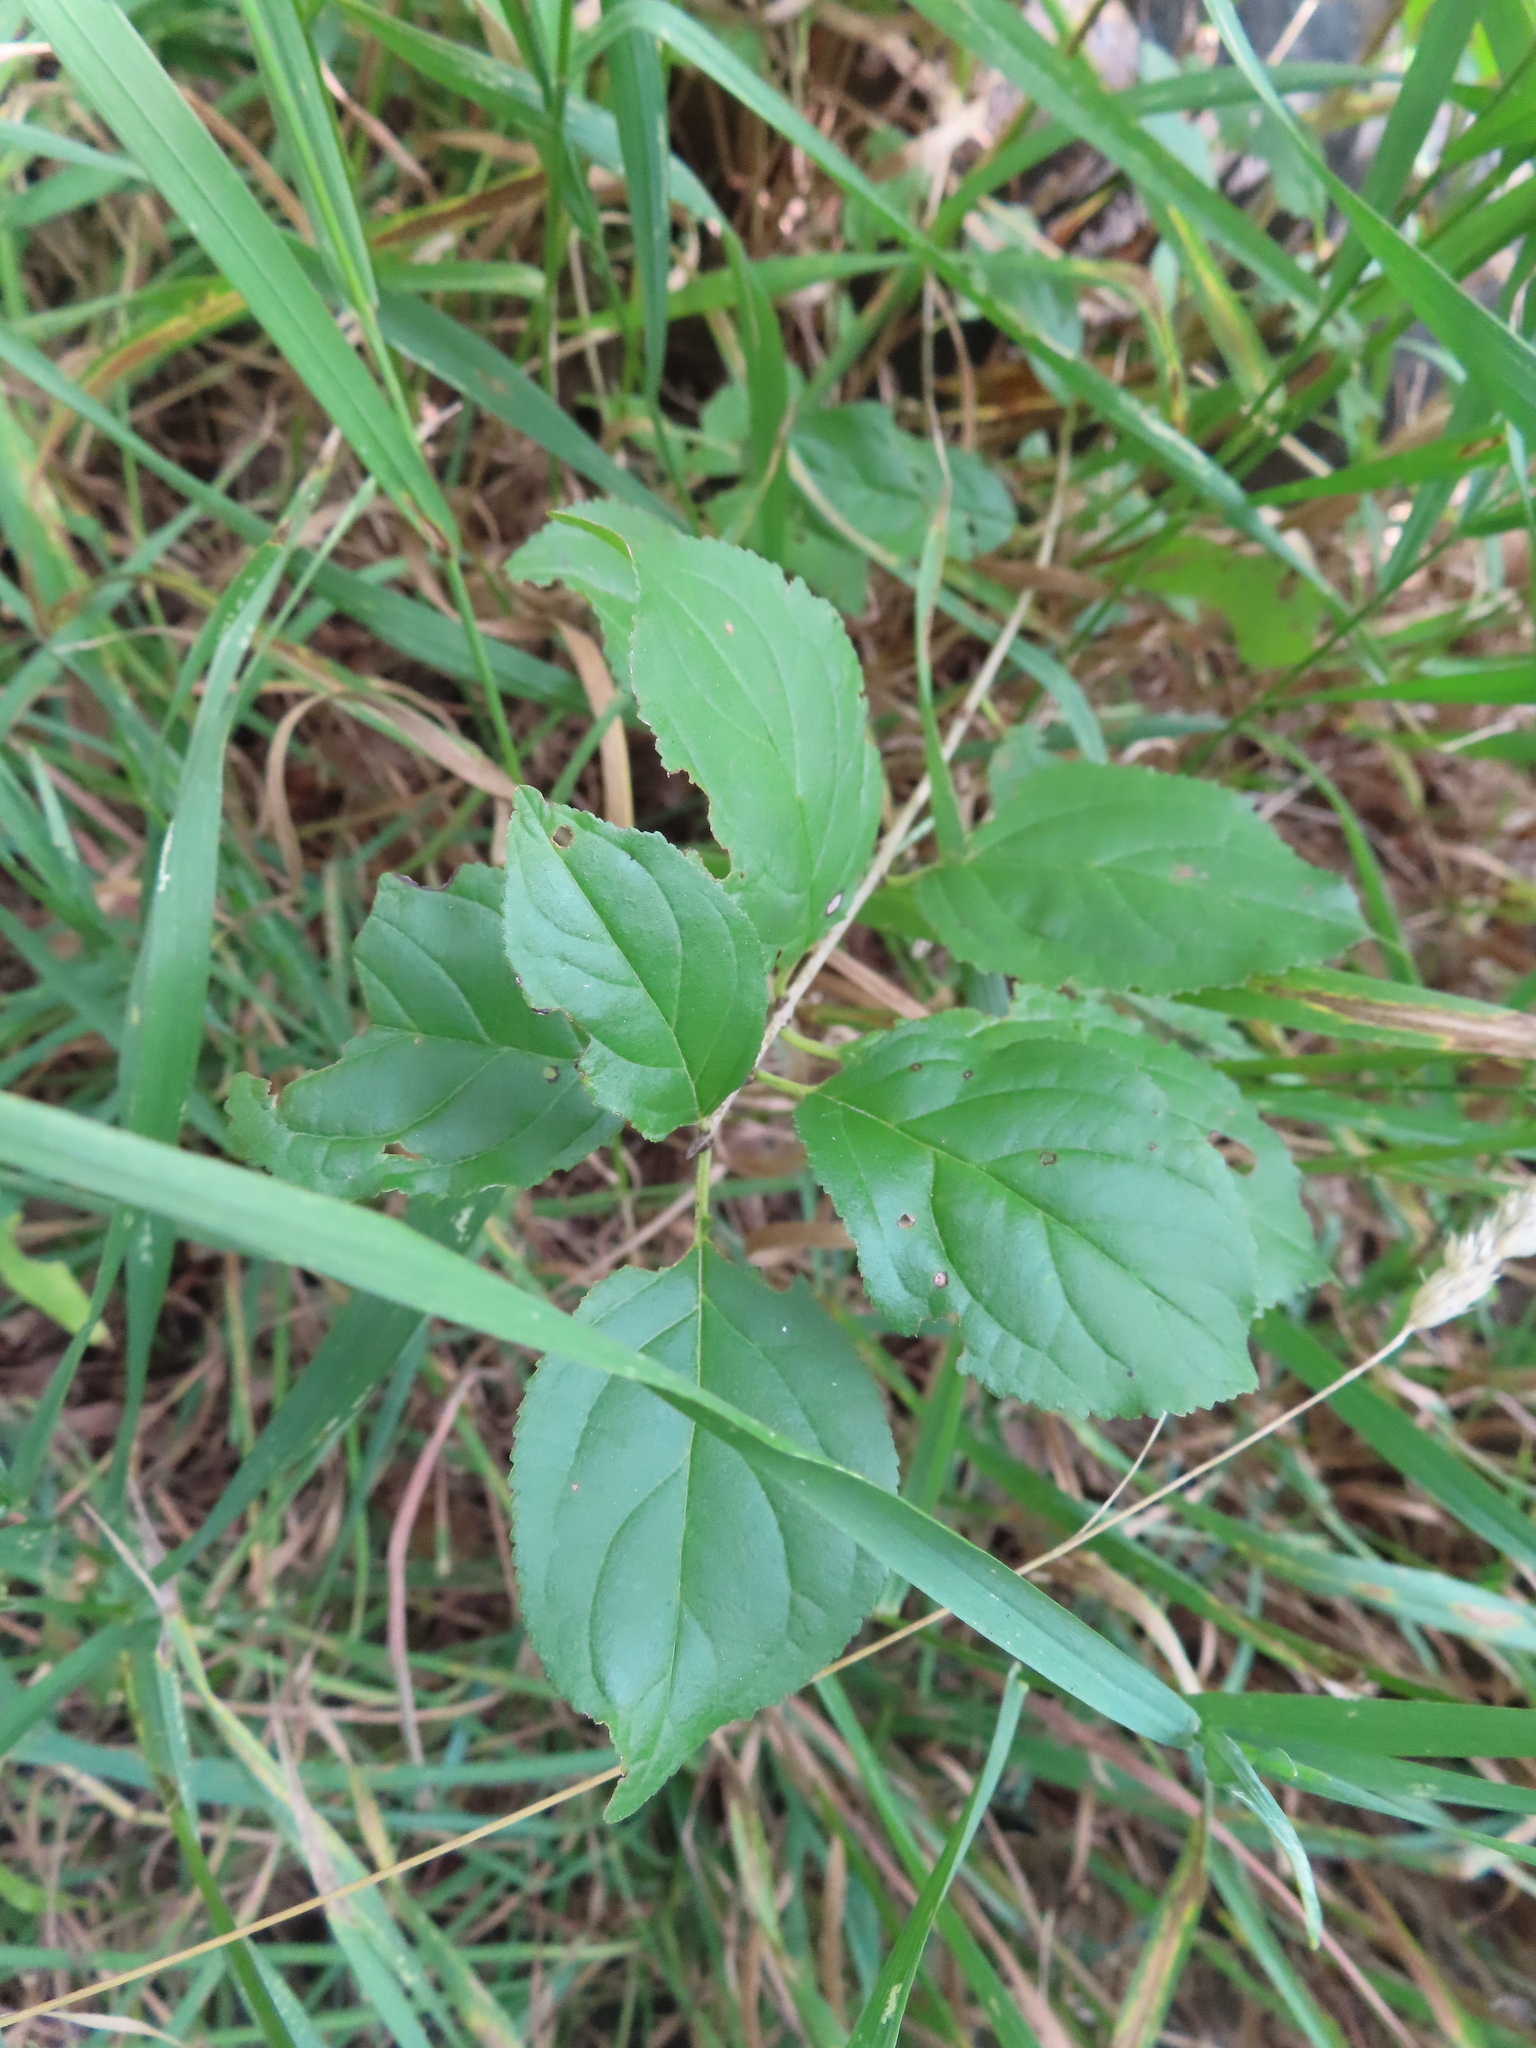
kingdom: Plantae
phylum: Tracheophyta
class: Magnoliopsida
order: Rosales
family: Rhamnaceae
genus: Rhamnus
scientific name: Rhamnus cathartica
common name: Common buckthorn
